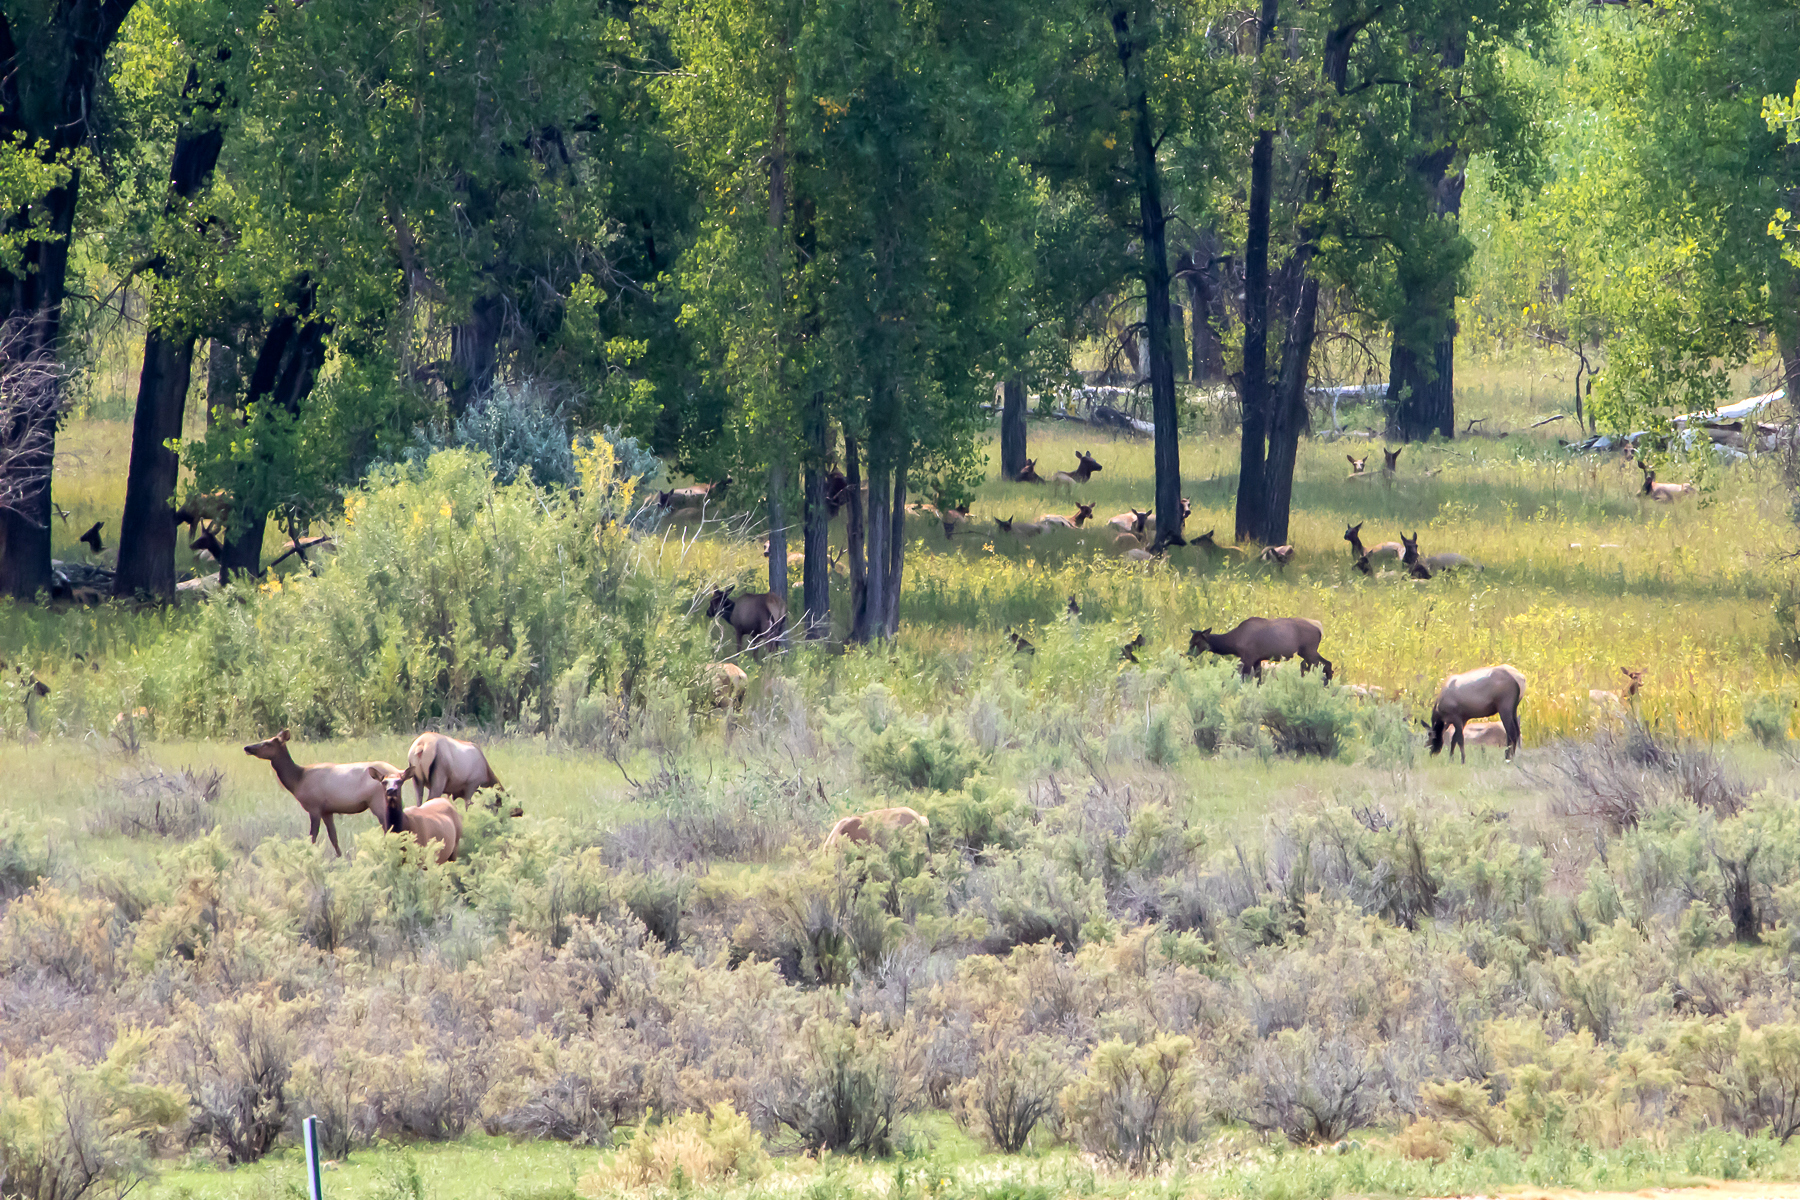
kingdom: Animalia
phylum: Chordata
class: Mammalia
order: Artiodactyla
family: Cervidae
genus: Cervus
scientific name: Cervus elaphus
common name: Red deer
